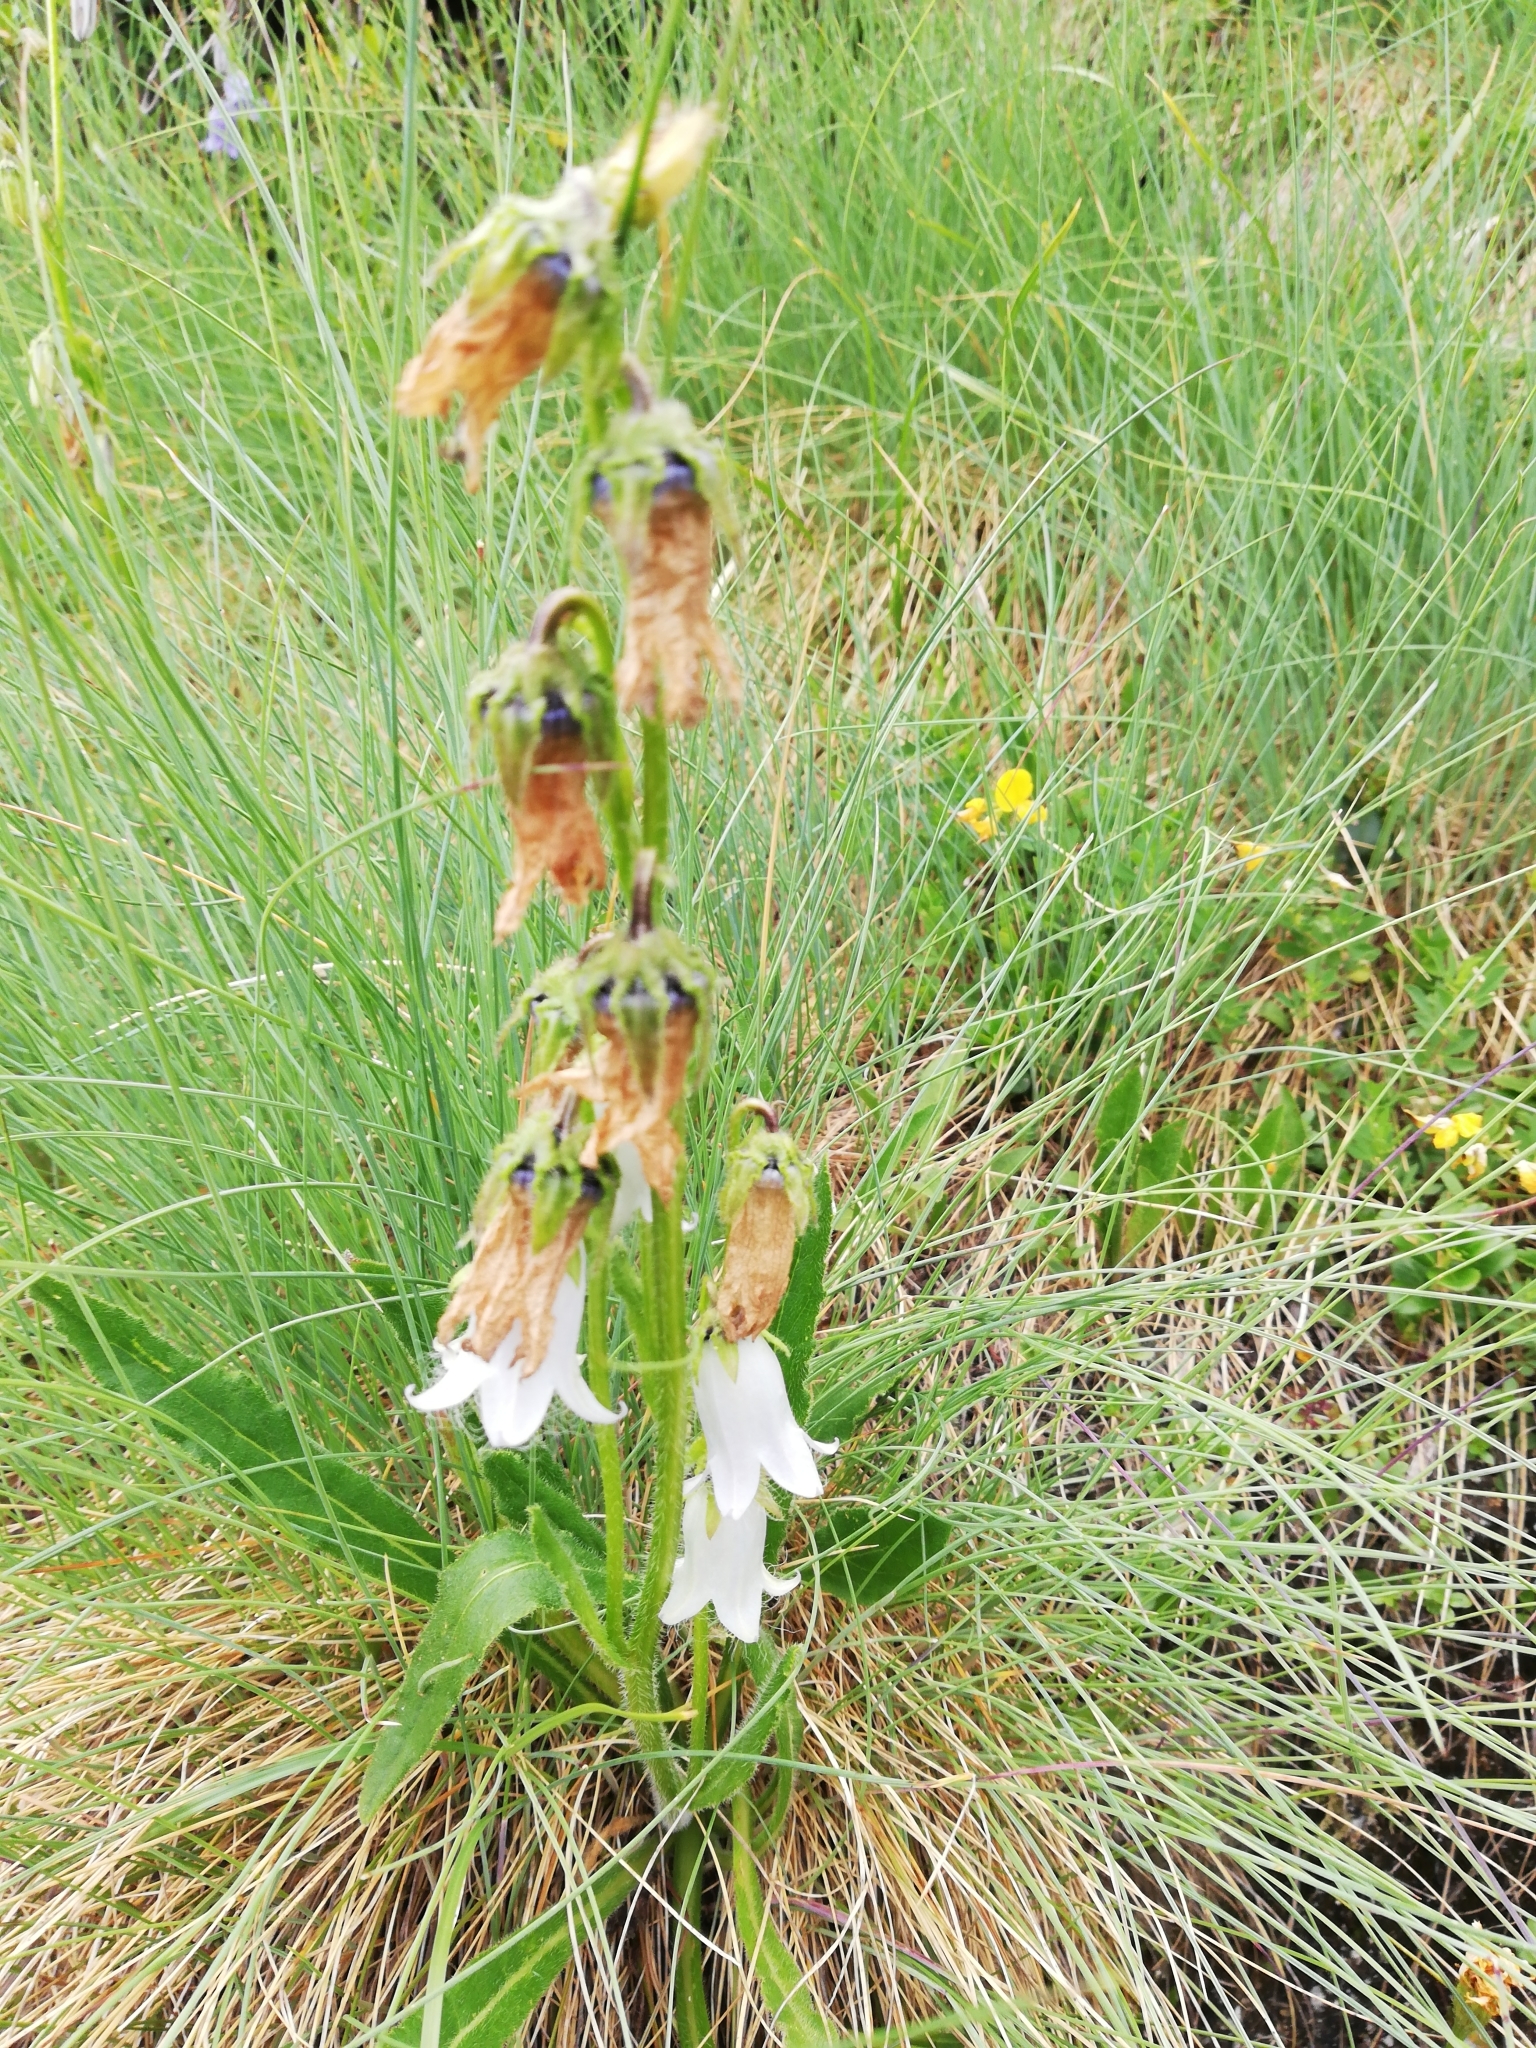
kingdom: Plantae
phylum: Tracheophyta
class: Magnoliopsida
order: Asterales
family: Campanulaceae
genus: Campanula
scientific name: Campanula barbata
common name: Bearded bellflower
